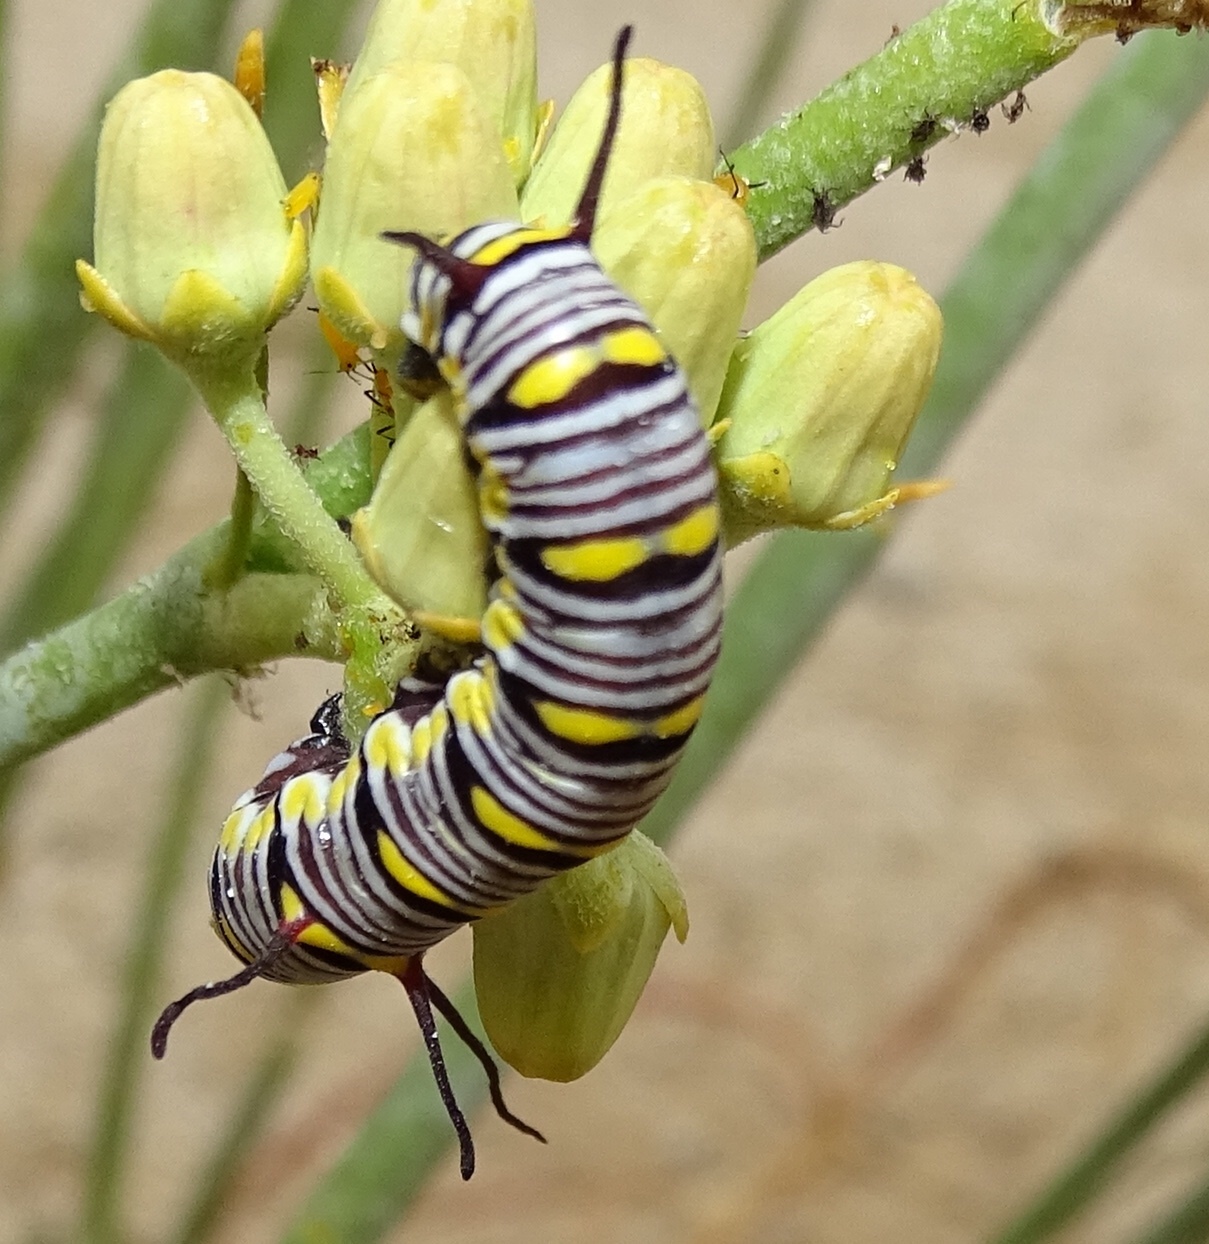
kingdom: Animalia
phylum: Arthropoda
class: Insecta
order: Lepidoptera
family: Nymphalidae
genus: Danaus
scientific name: Danaus gilippus
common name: Queen
